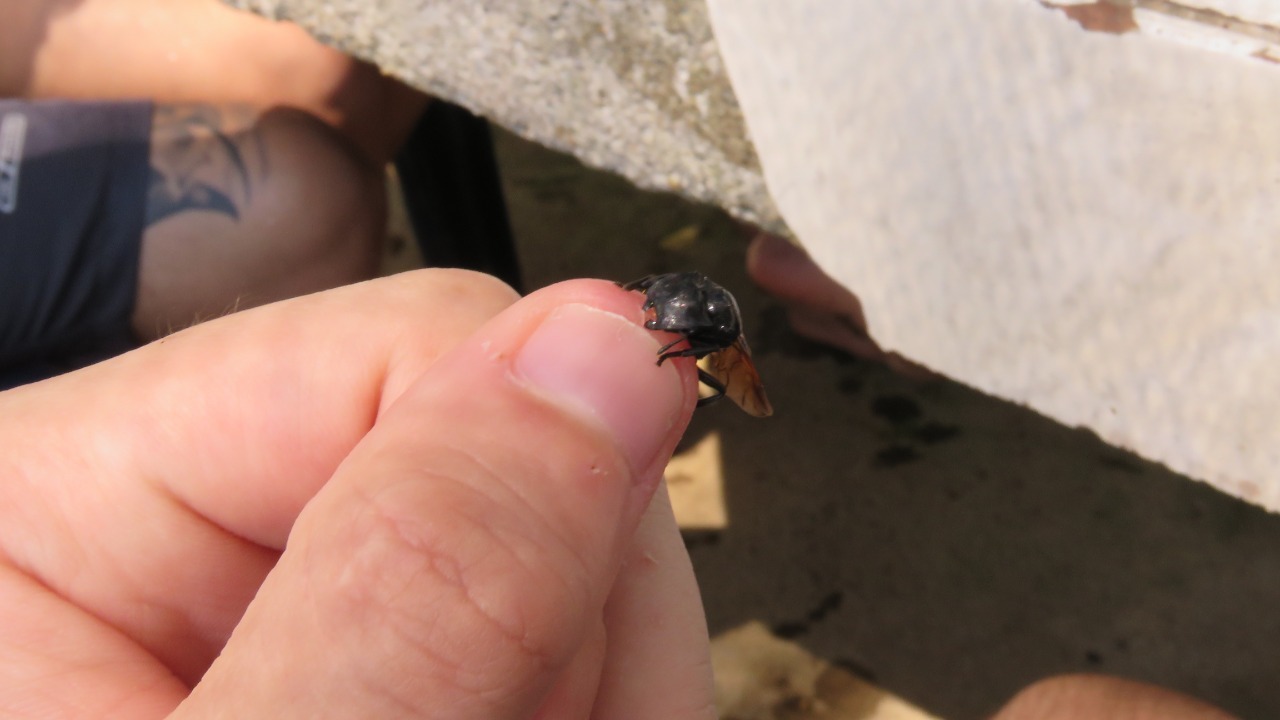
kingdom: Animalia
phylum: Arthropoda
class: Insecta
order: Hymenoptera
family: Formicidae
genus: Cephalotes
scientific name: Cephalotes atratus
